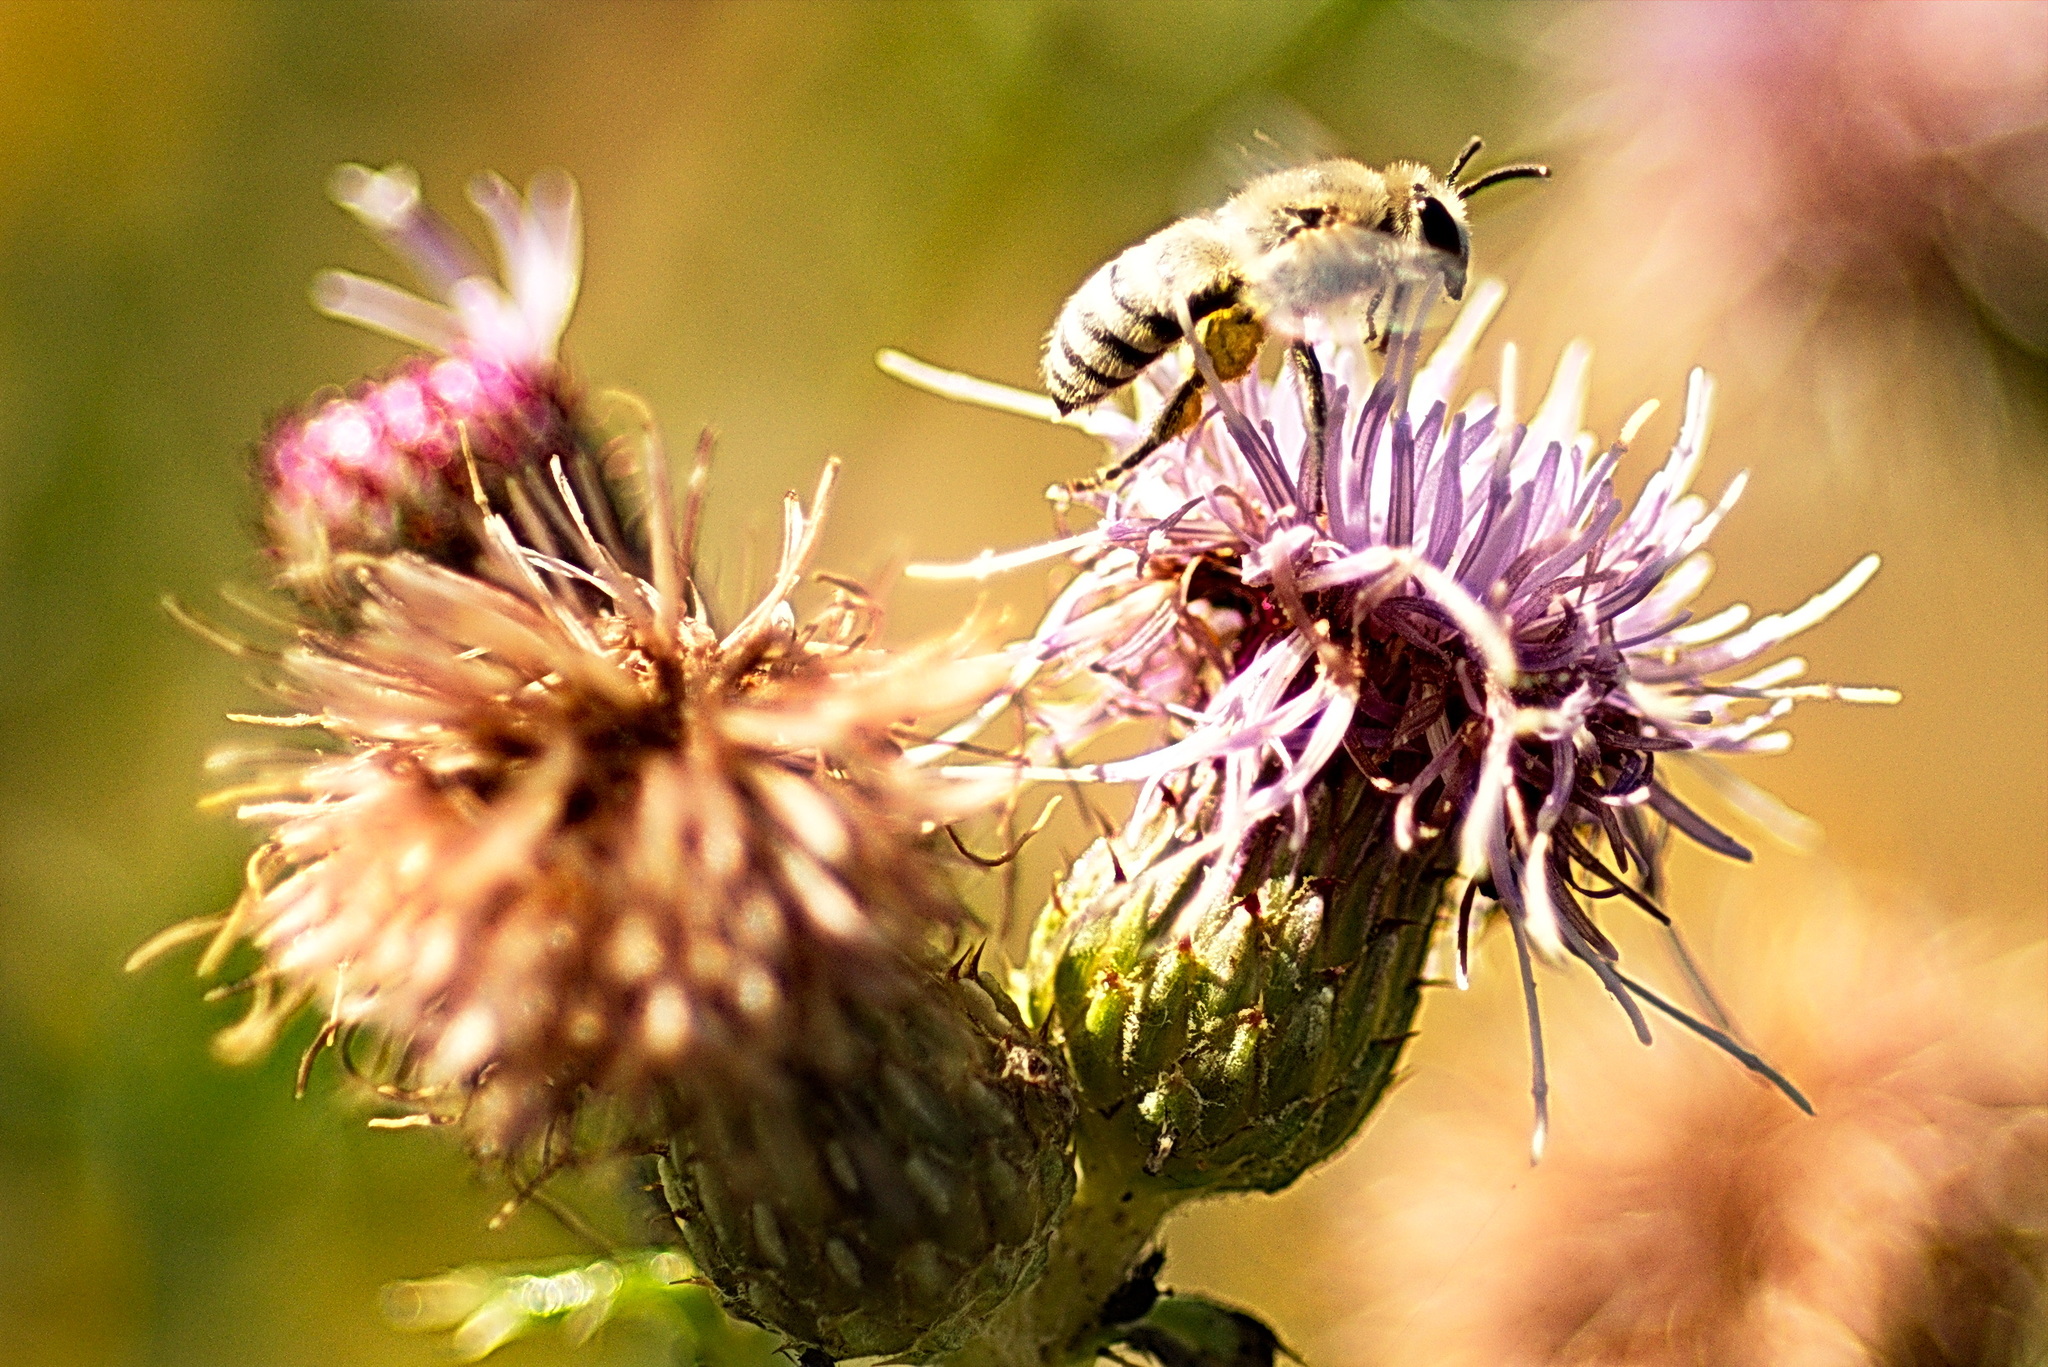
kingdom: Animalia
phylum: Arthropoda
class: Insecta
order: Hymenoptera
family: Colletidae
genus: Colletes
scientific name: Colletes
